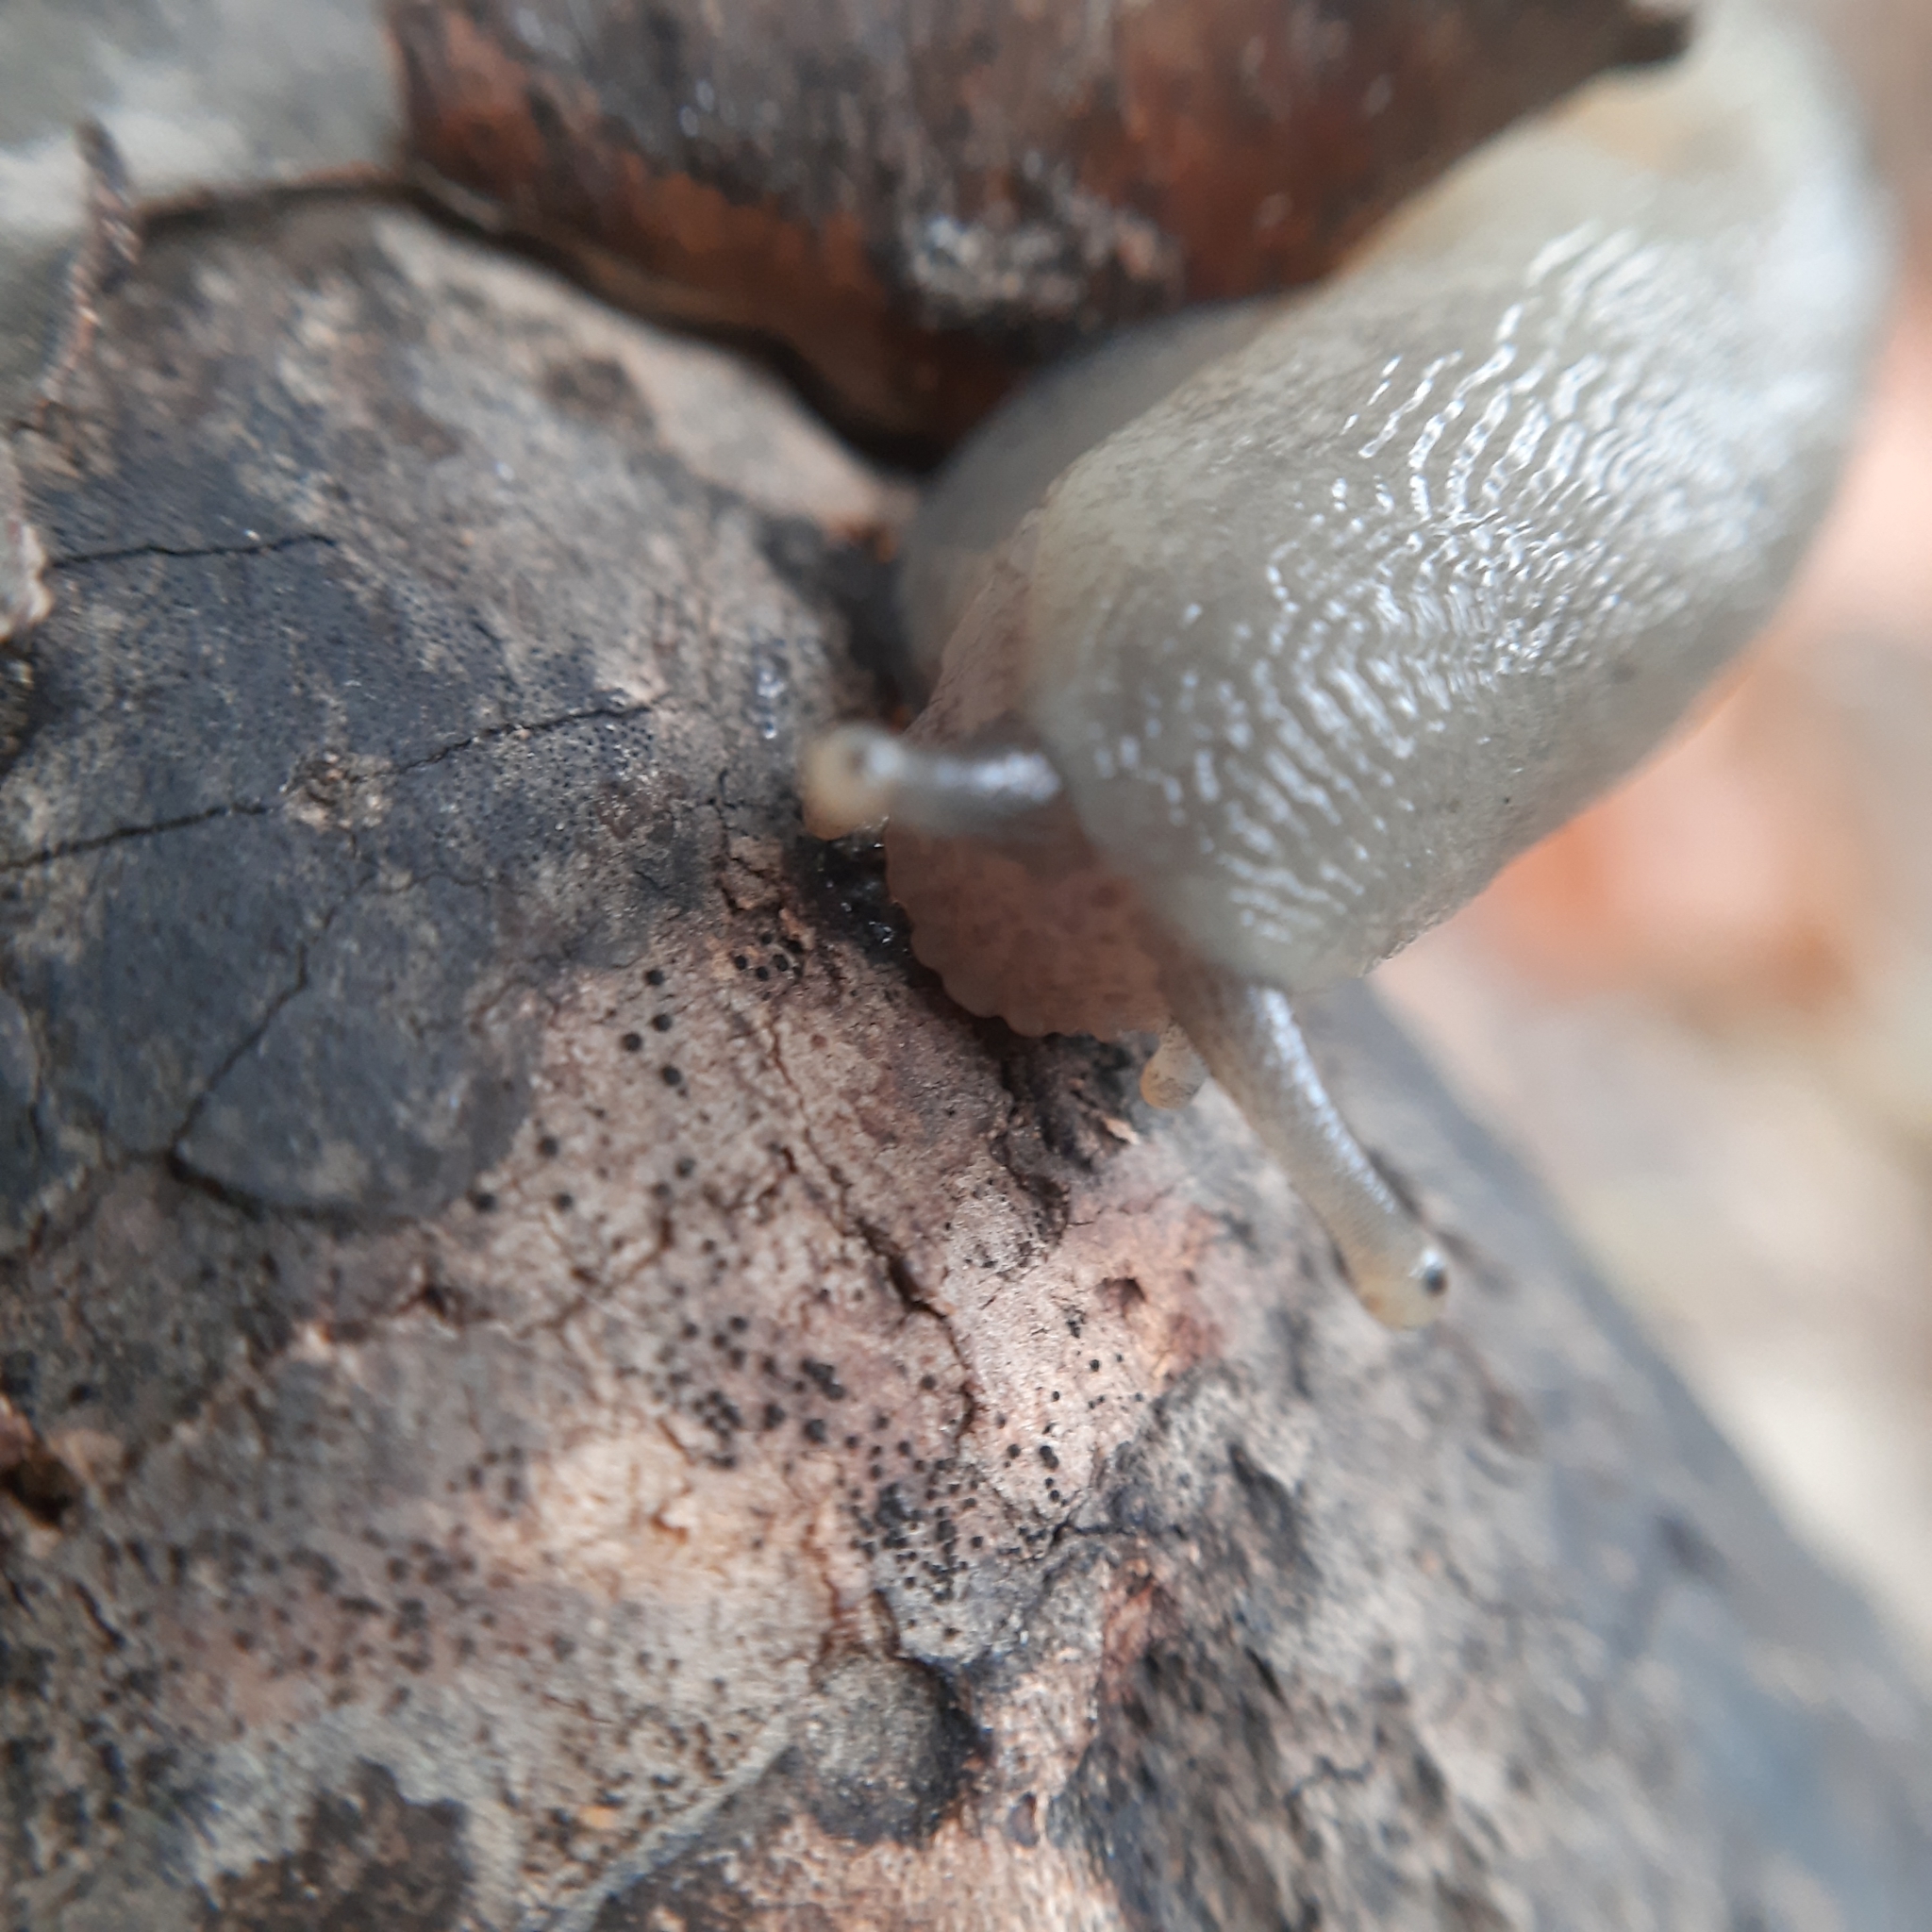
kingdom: Animalia
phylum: Mollusca
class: Gastropoda
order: Stylommatophora
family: Limacidae
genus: Limax
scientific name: Limax cinereoniger
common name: Ash-black slug
